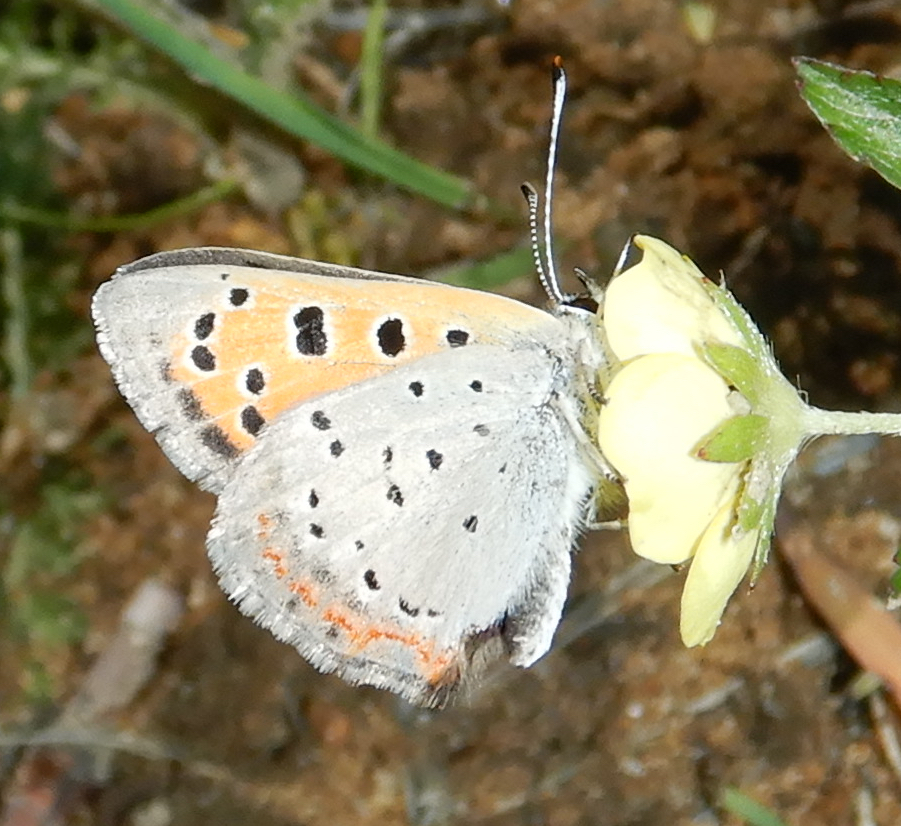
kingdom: Animalia
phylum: Arthropoda
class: Insecta
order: Lepidoptera
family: Lycaenidae
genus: Lycaena
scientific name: Lycaena hypophlaeas
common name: American copper
